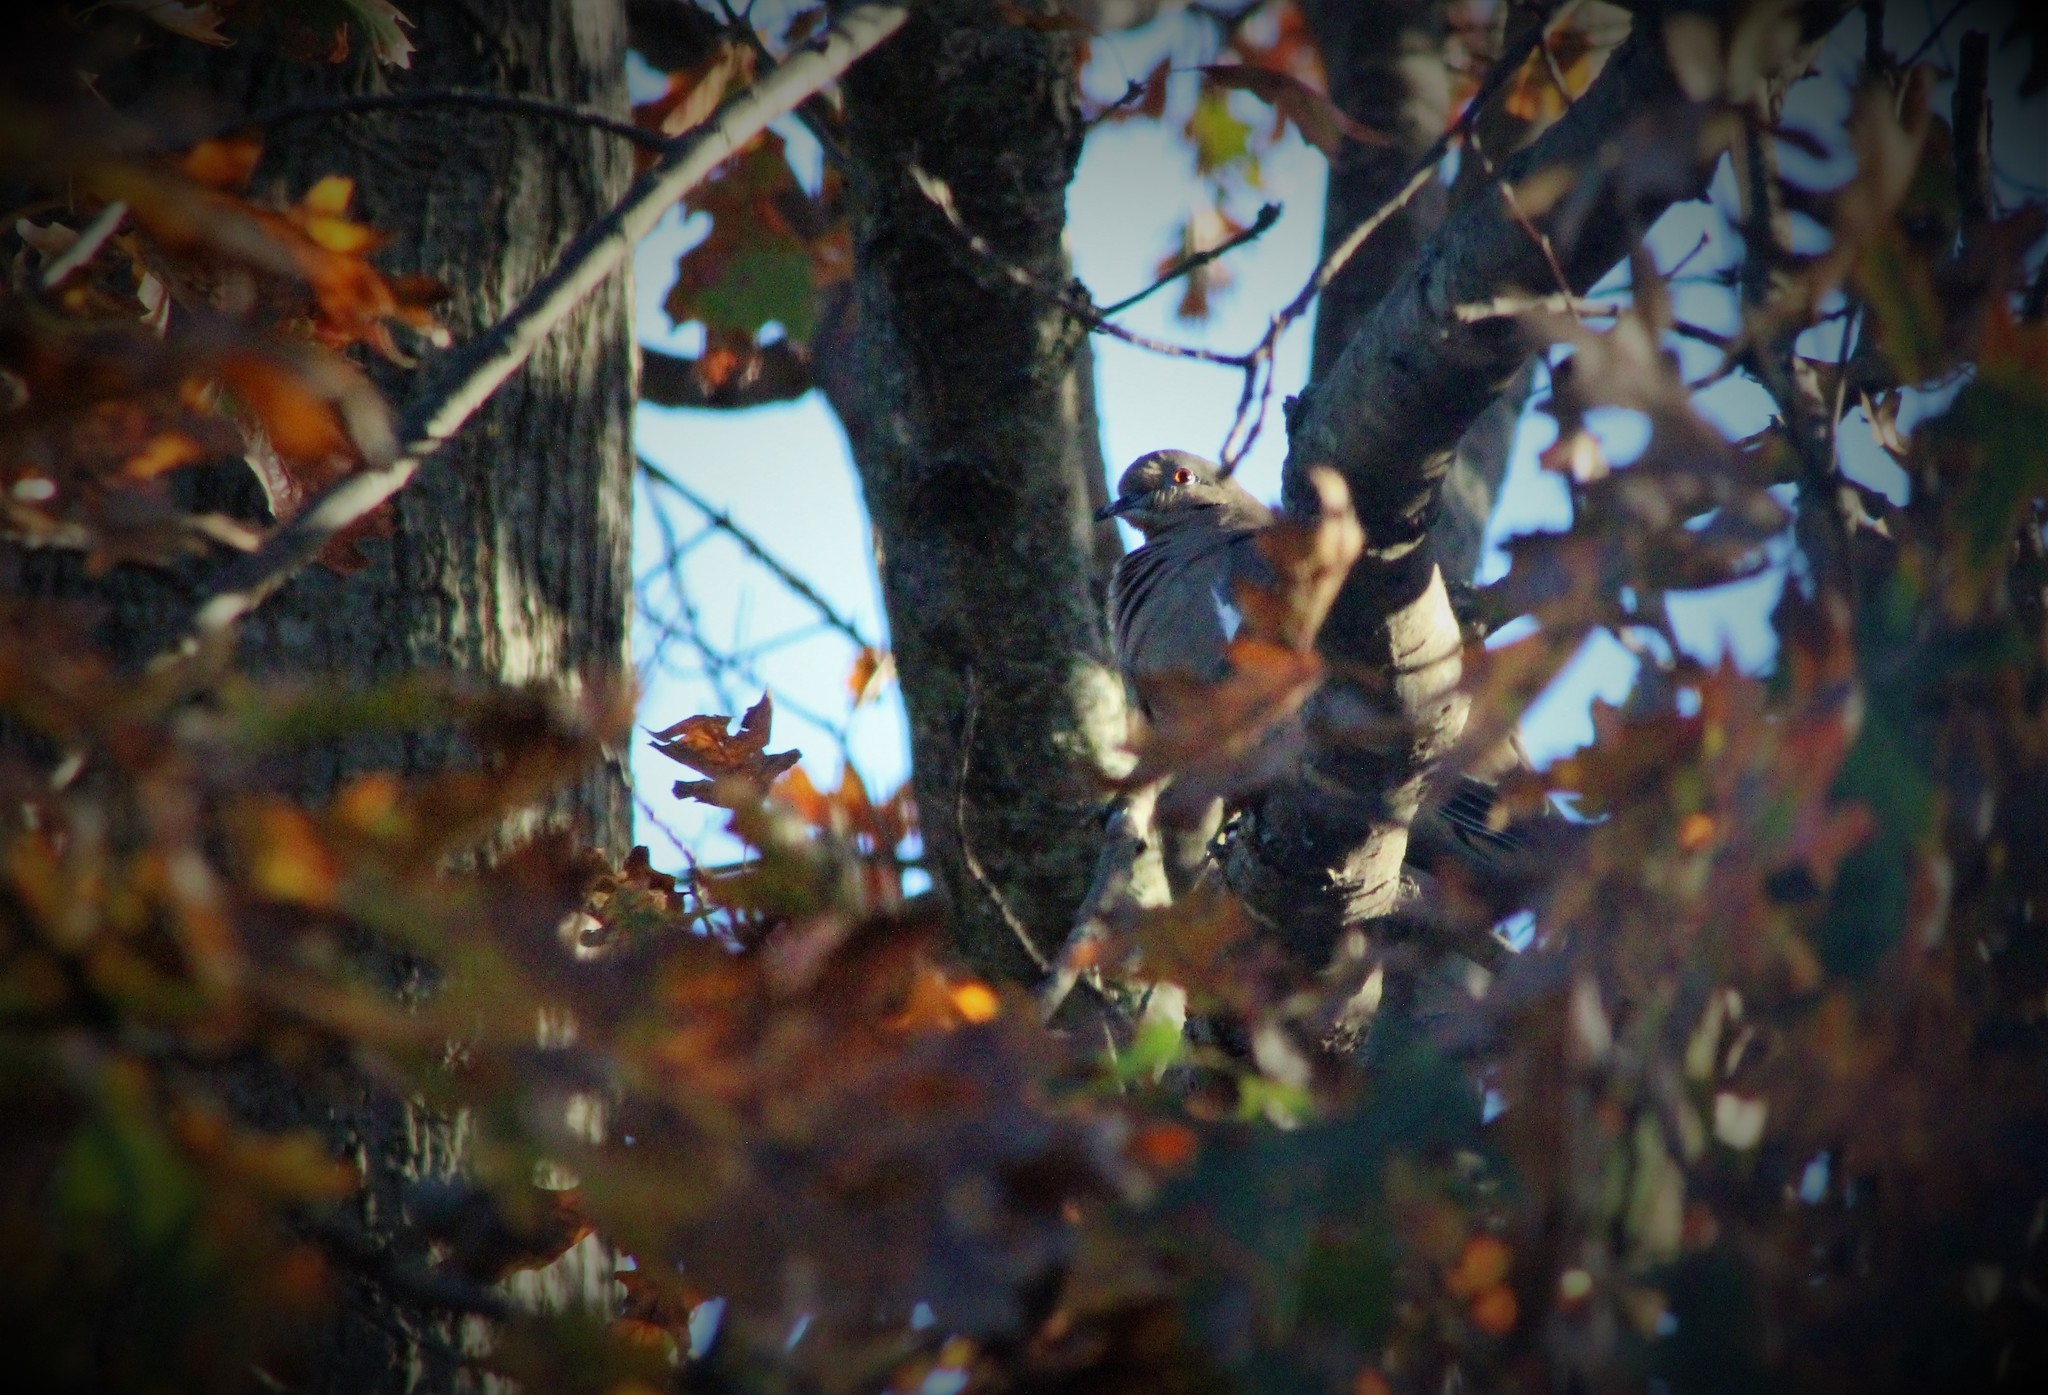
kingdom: Animalia
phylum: Chordata
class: Aves
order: Columbiformes
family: Columbidae
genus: Zenaida
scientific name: Zenaida macroura
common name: Mourning dove
